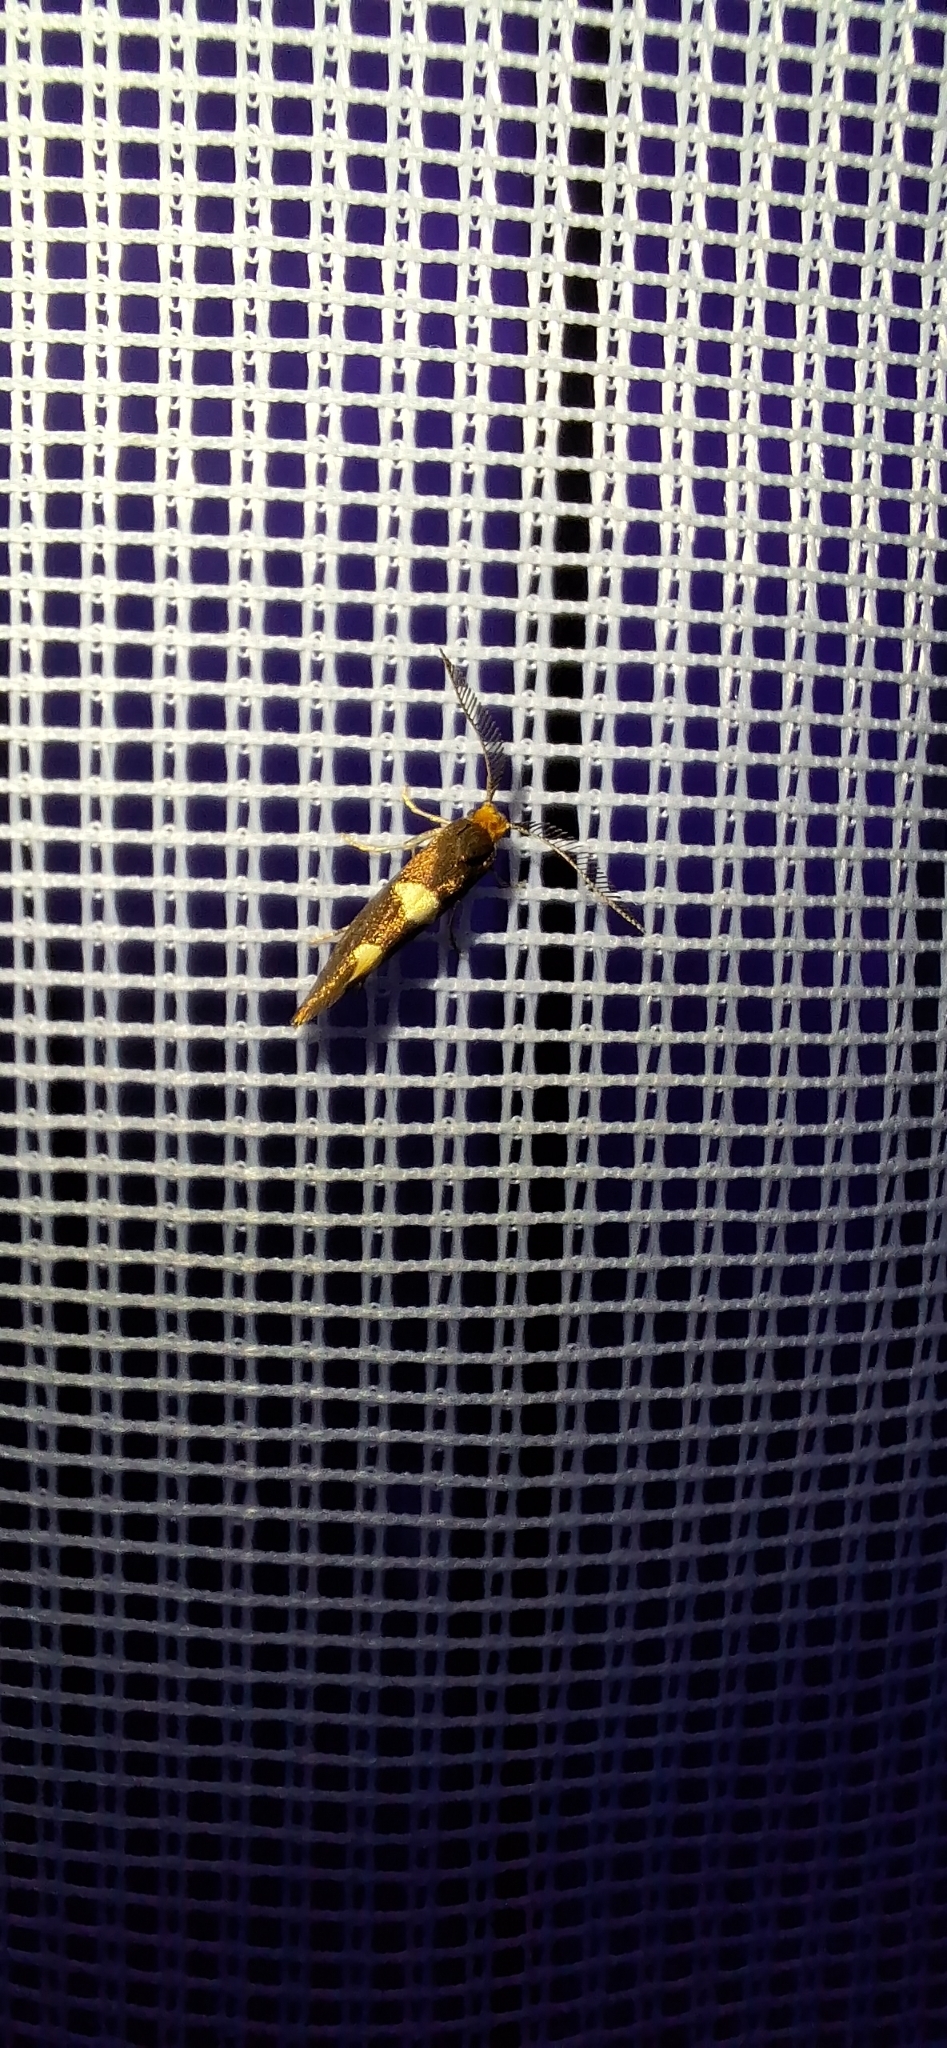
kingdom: Animalia
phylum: Arthropoda
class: Insecta
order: Lepidoptera
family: Incurvariidae
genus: Incurvaria
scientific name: Incurvaria masculella
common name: Feathered leaf-cutter
